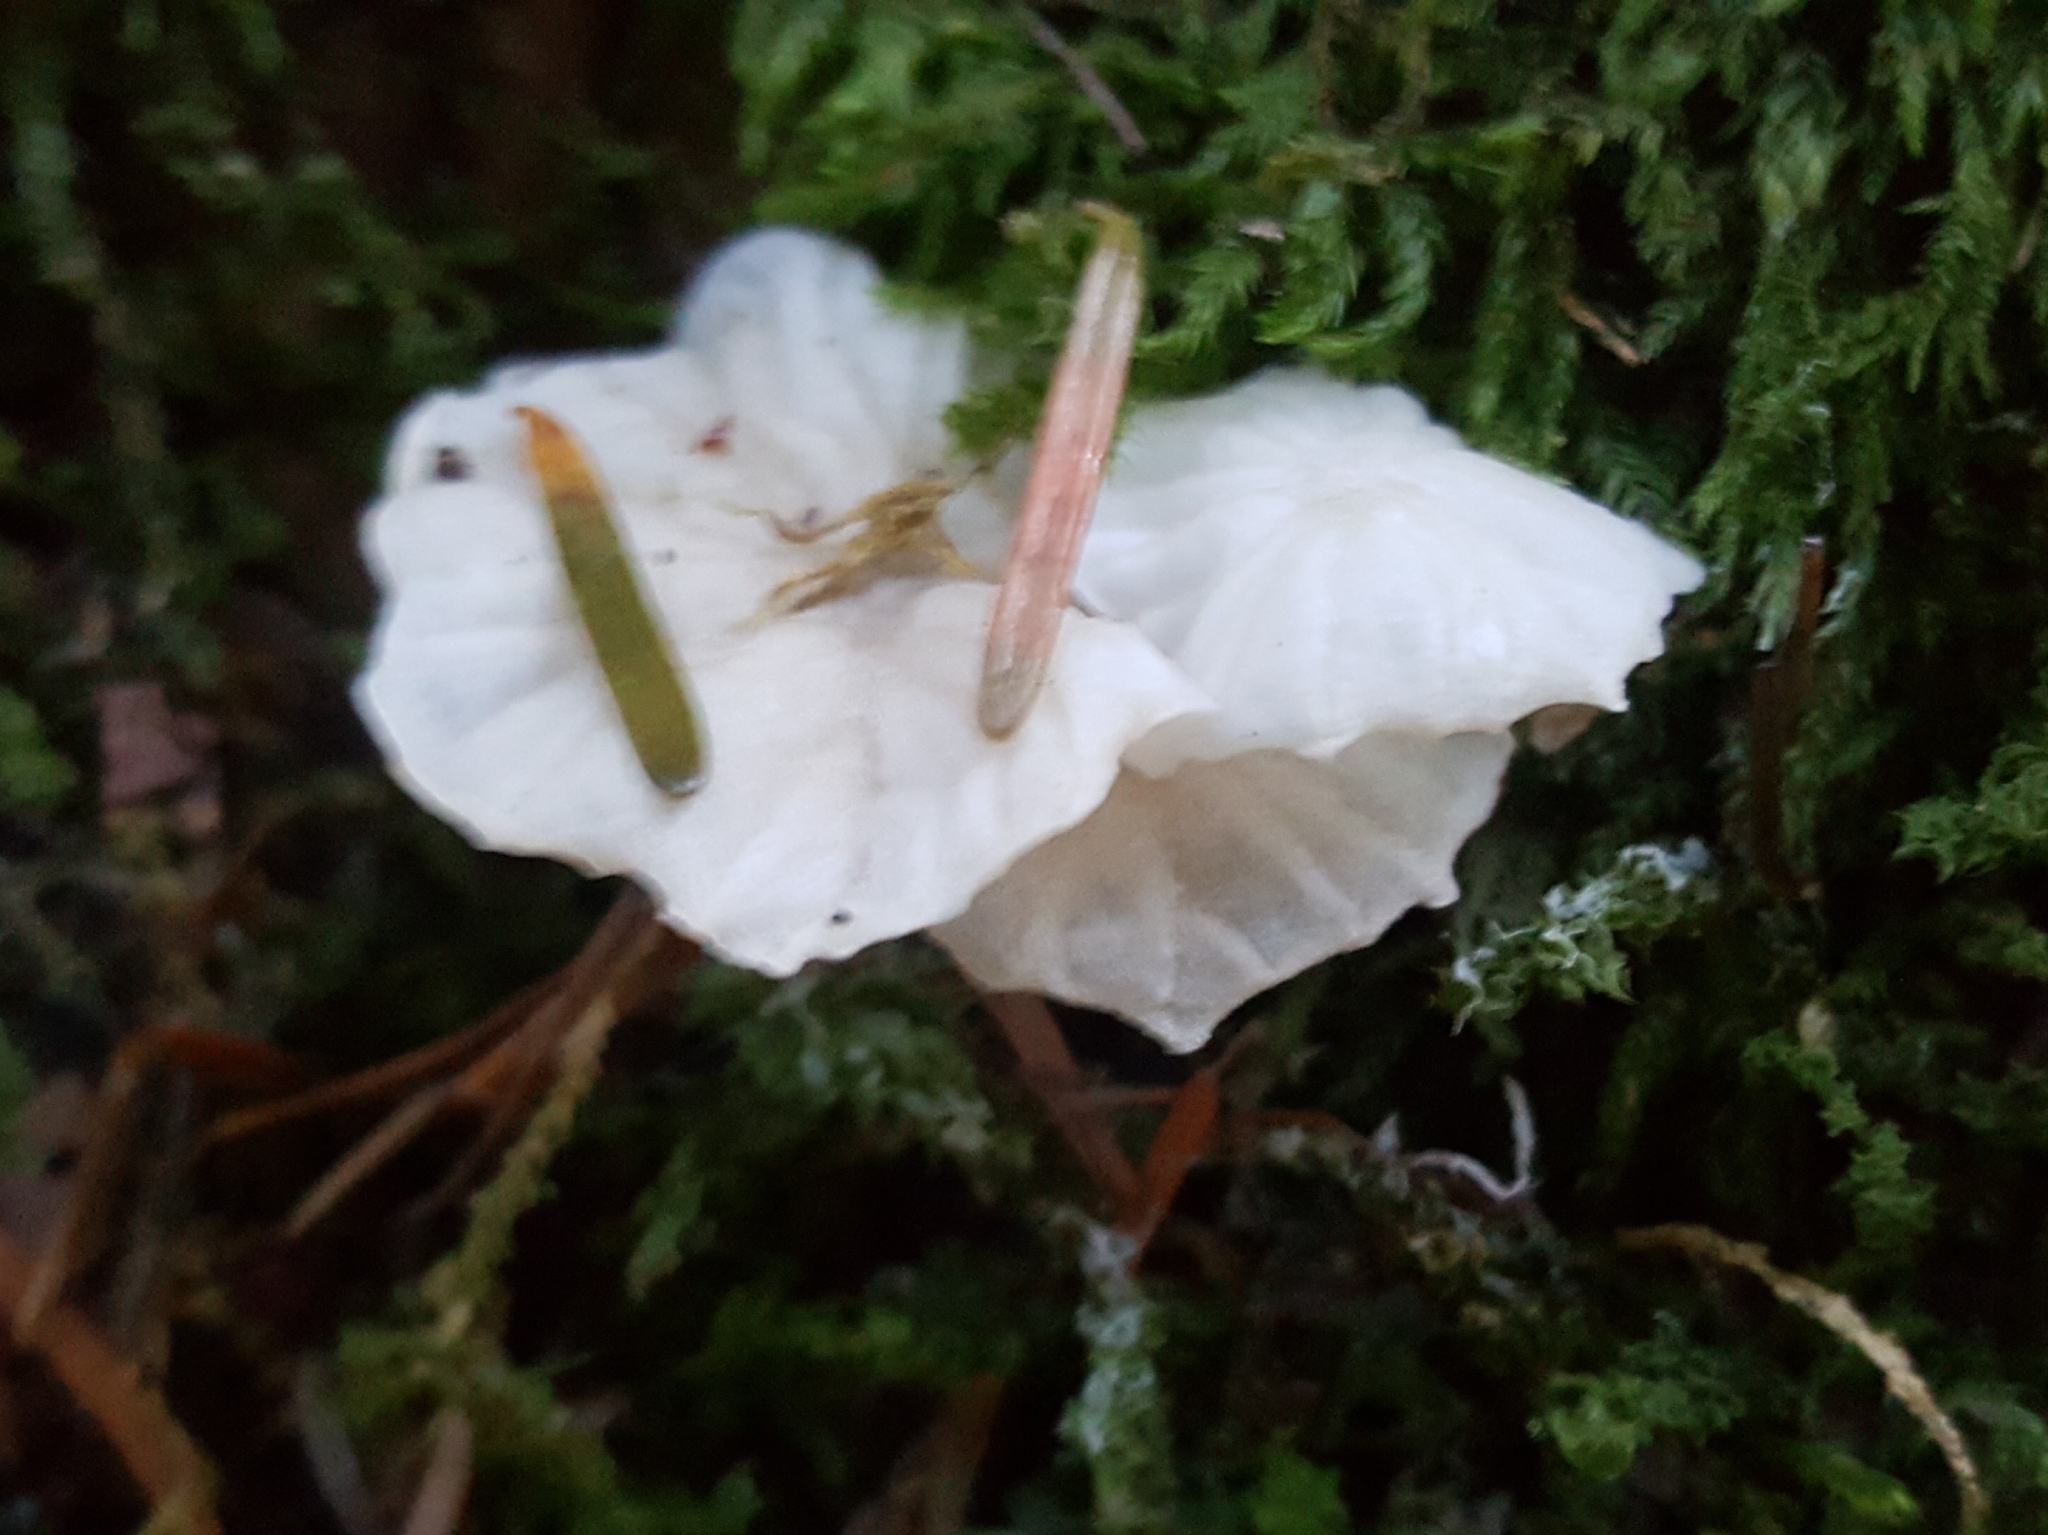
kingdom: Fungi
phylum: Basidiomycota
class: Agaricomycetes
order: Agaricales
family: Omphalotaceae
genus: Marasmiellus
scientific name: Marasmiellus candidus
